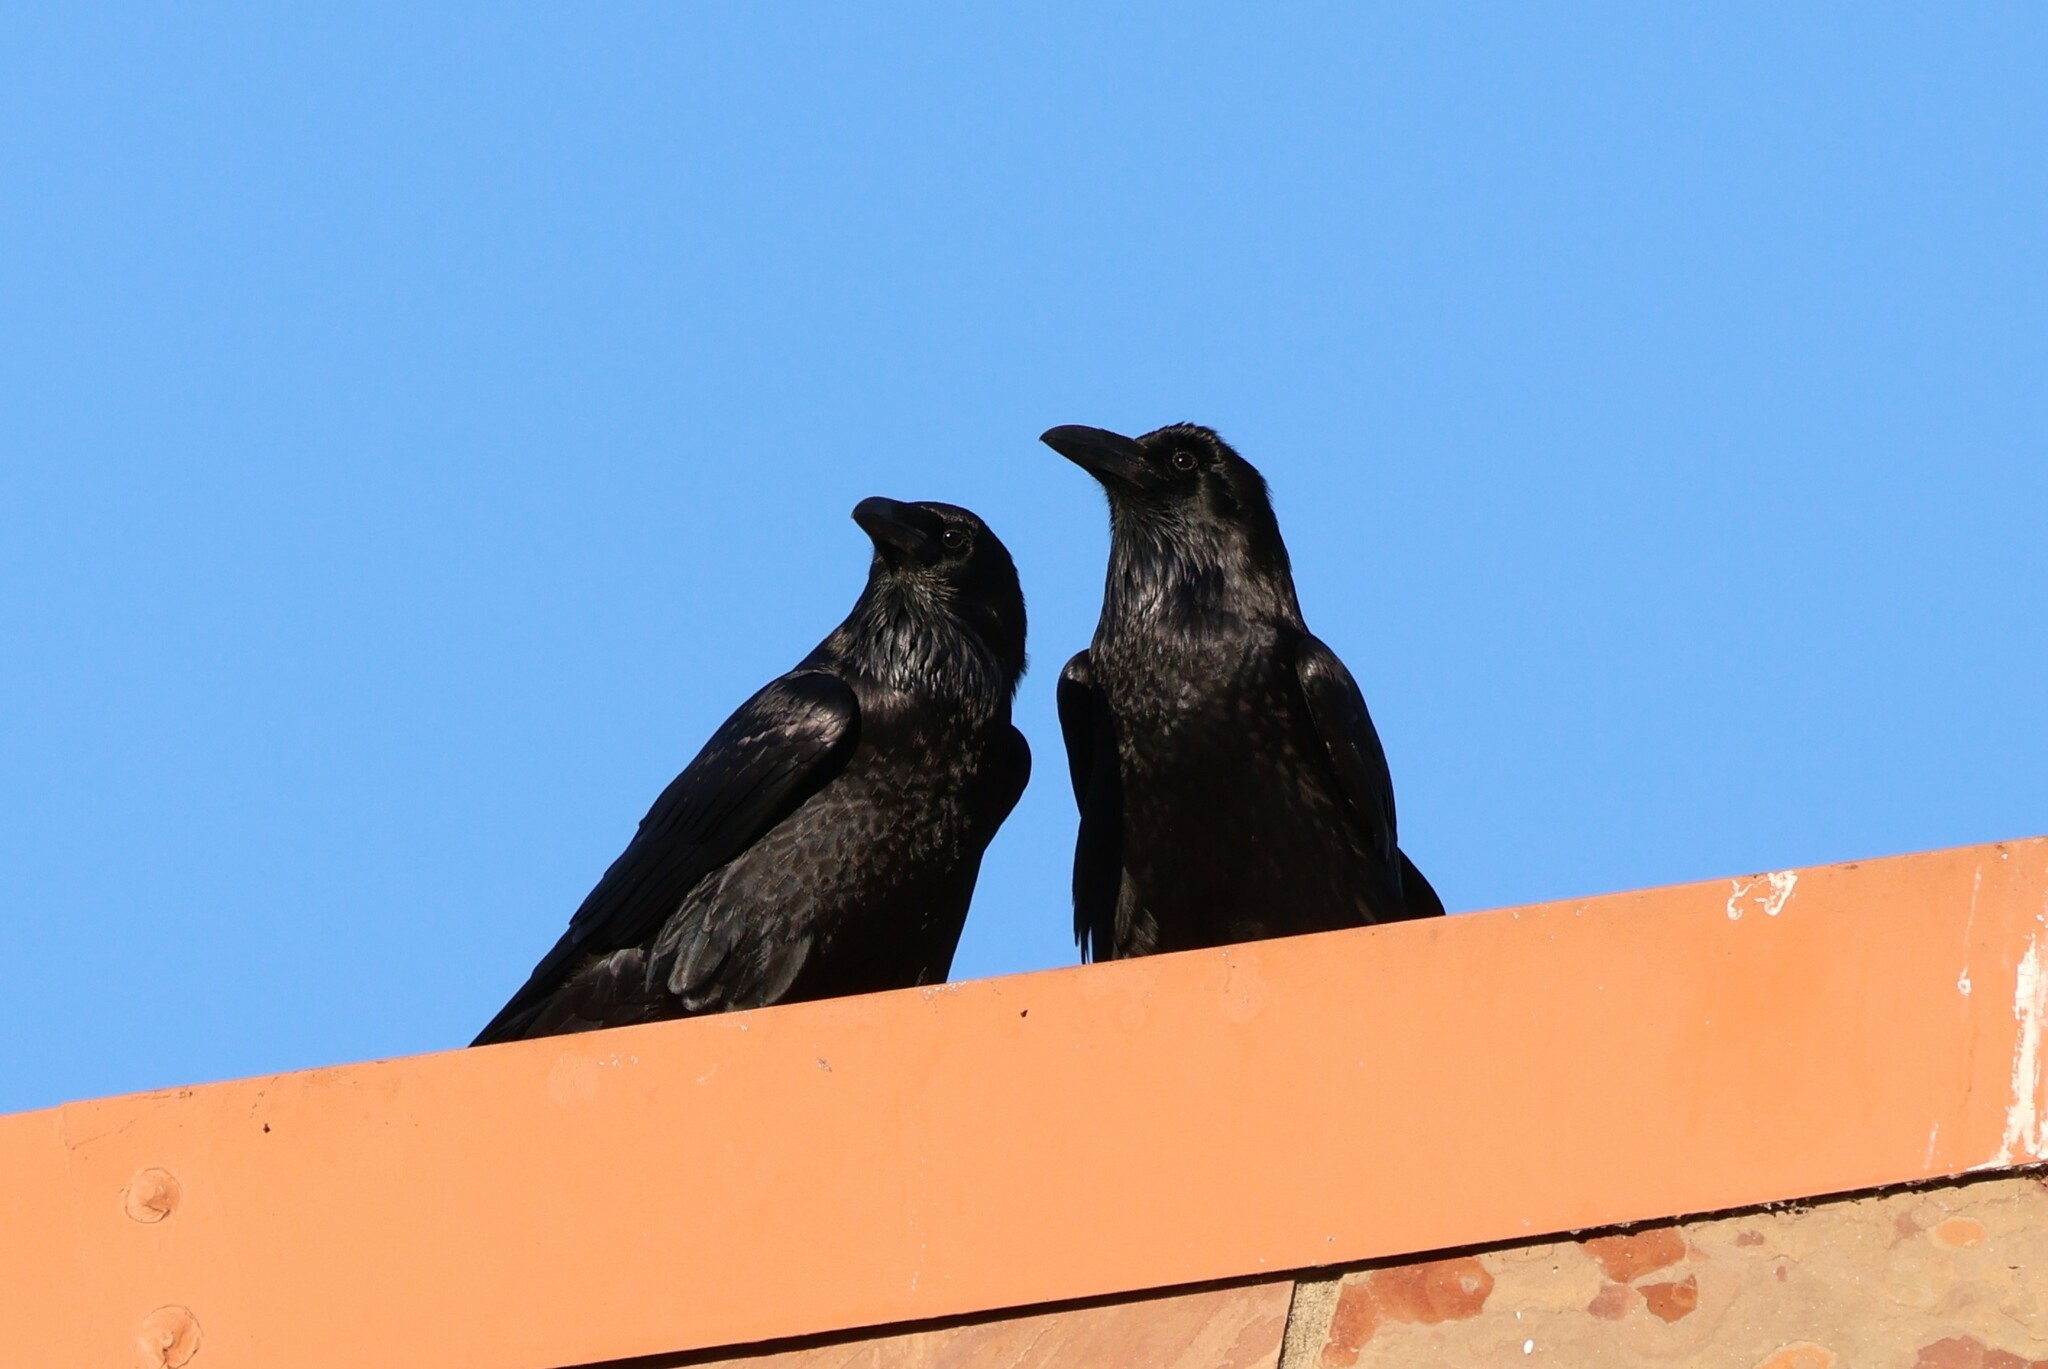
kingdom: Animalia
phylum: Chordata
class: Aves
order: Passeriformes
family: Corvidae
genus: Corvus
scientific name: Corvus corax
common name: Common raven
